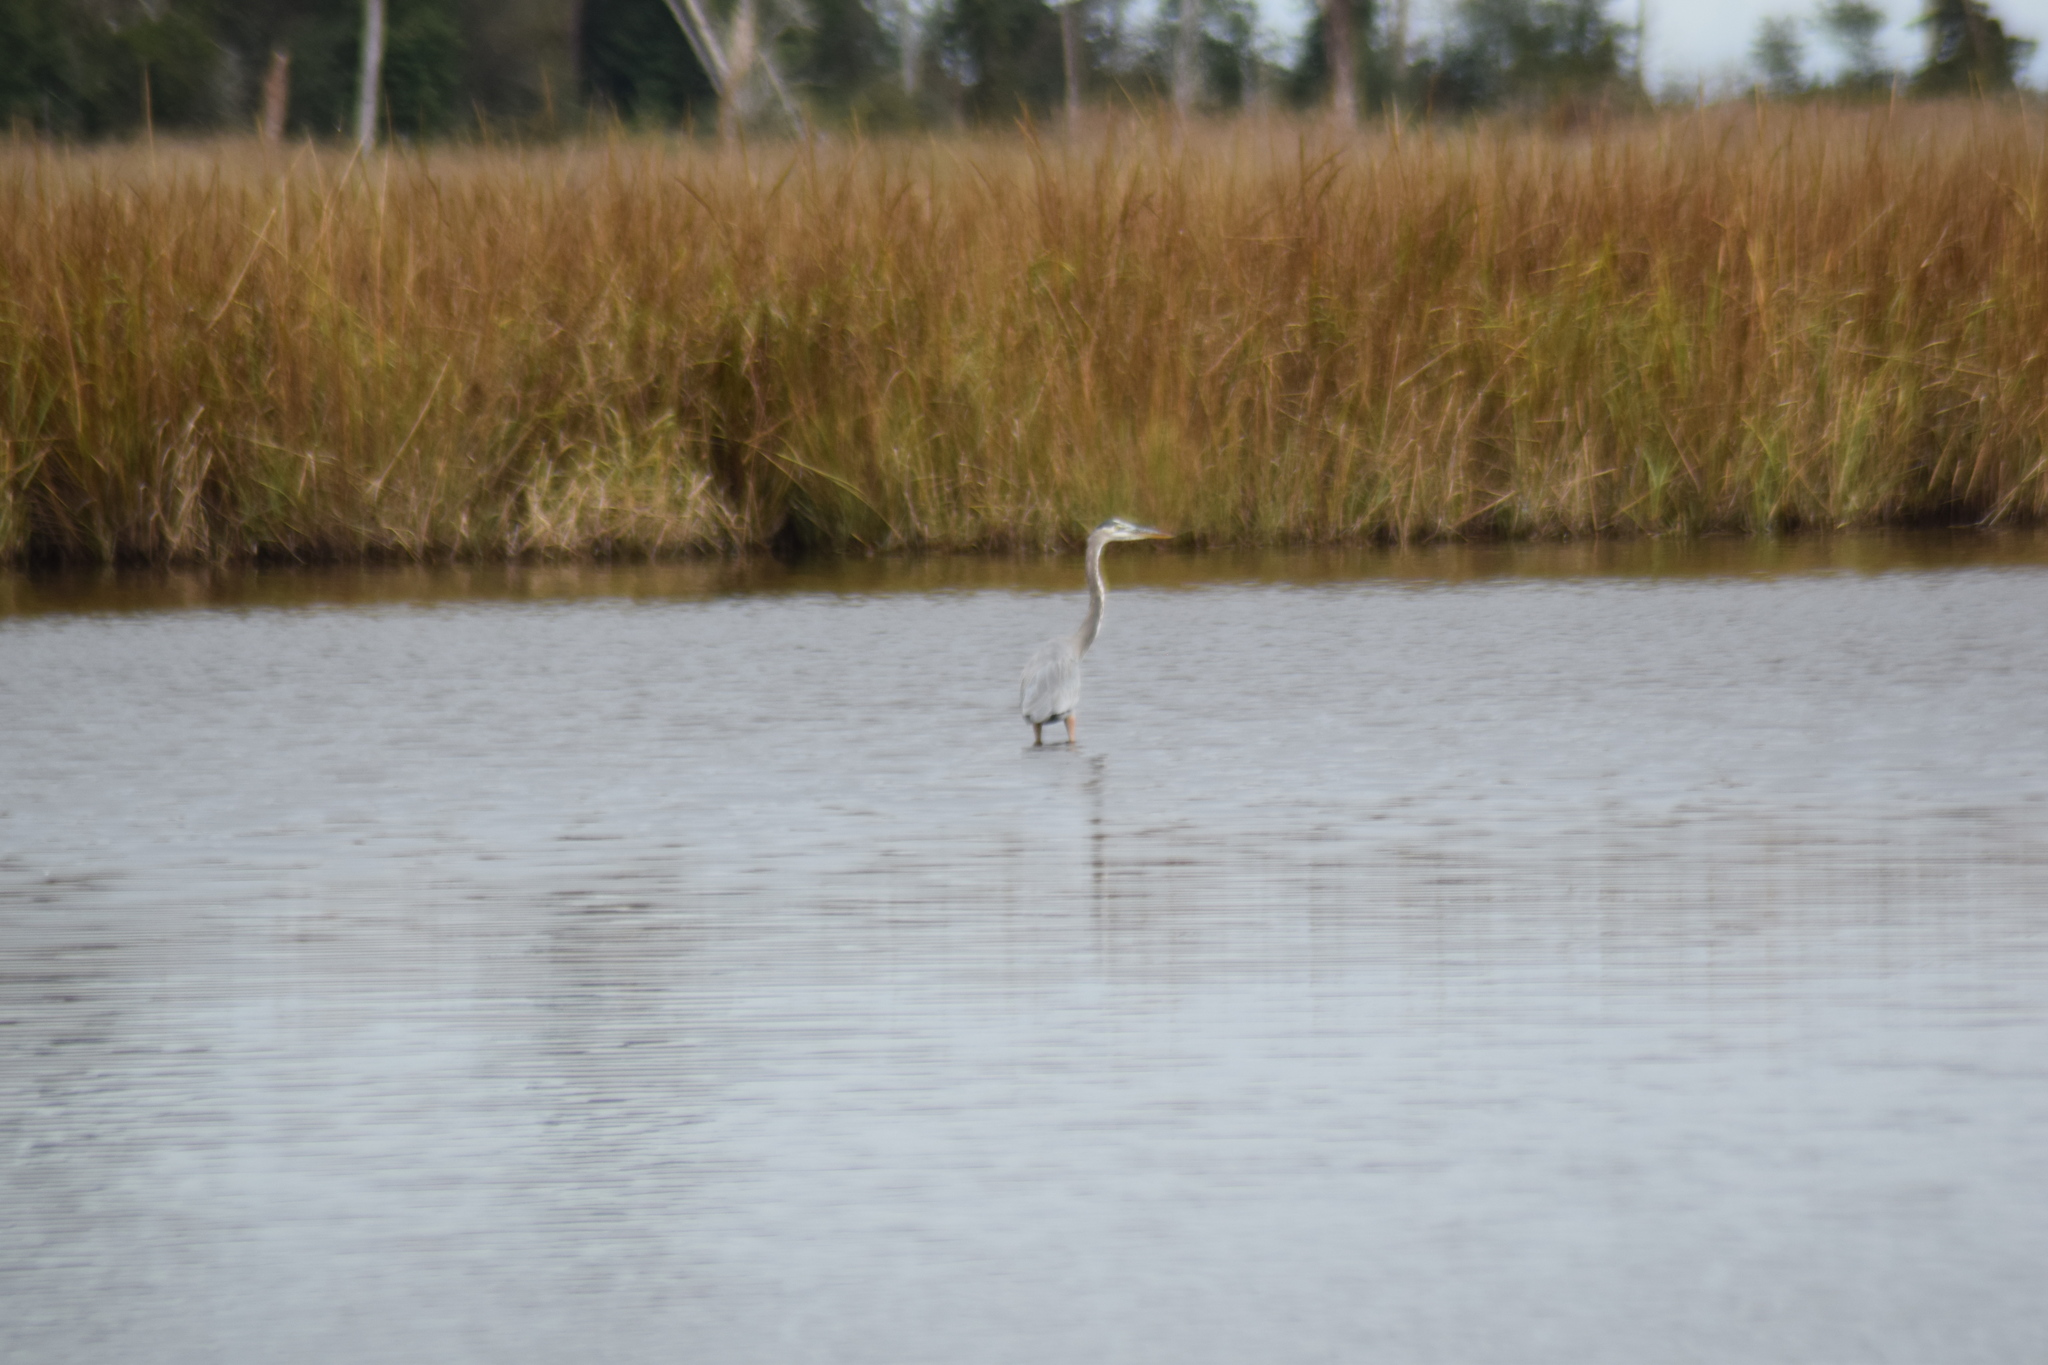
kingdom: Animalia
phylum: Chordata
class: Aves
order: Pelecaniformes
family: Ardeidae
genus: Ardea
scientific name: Ardea herodias
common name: Great blue heron
